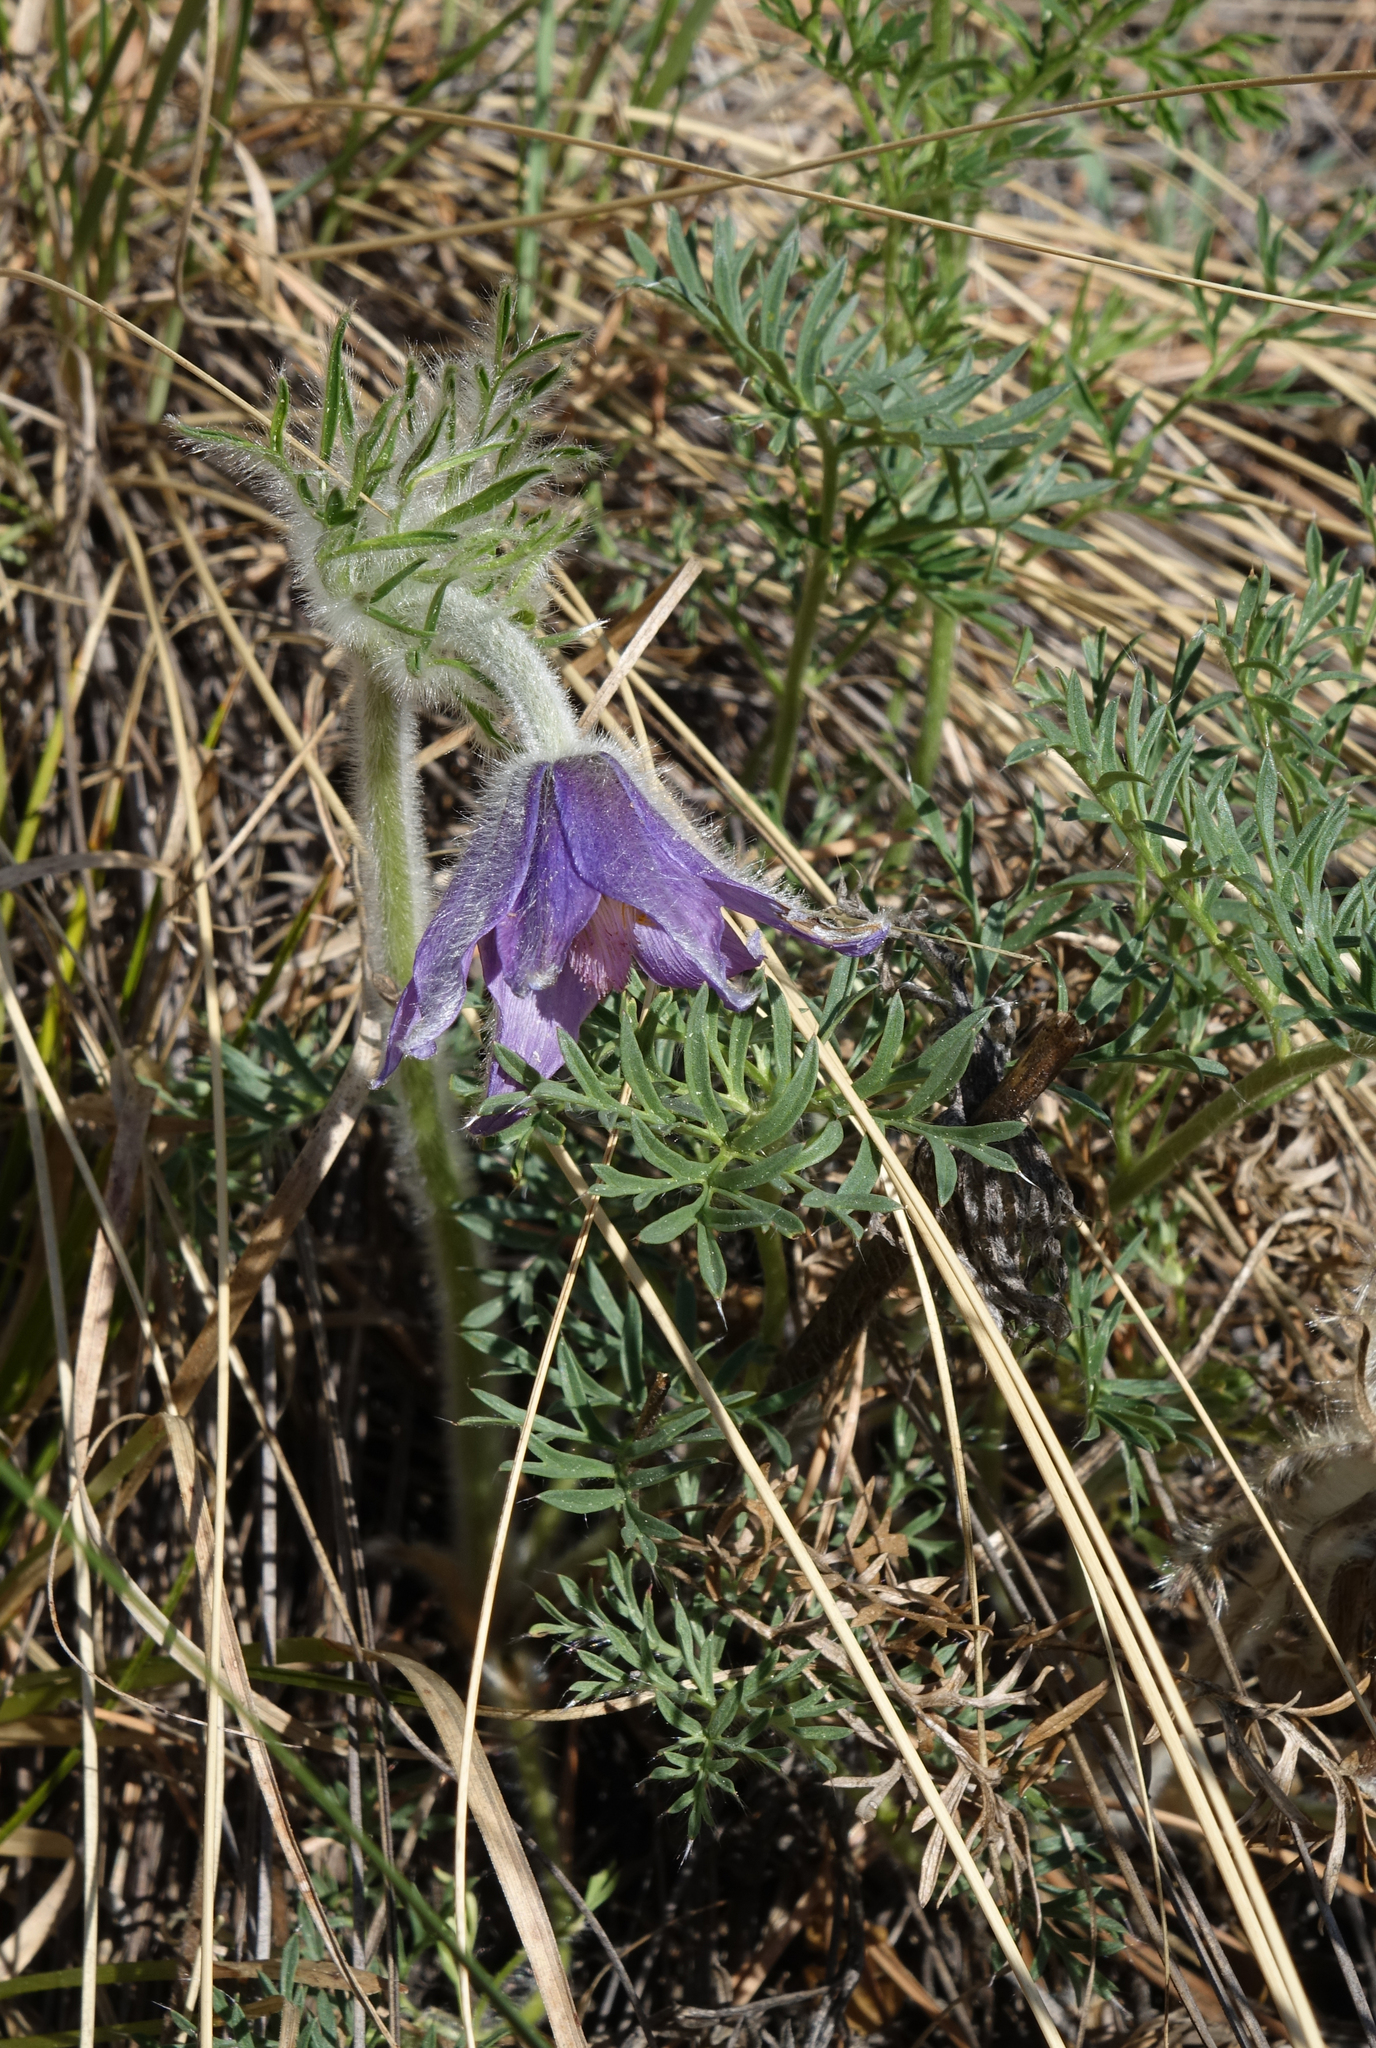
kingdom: Plantae
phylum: Tracheophyta
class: Magnoliopsida
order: Ranunculales
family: Ranunculaceae
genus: Pulsatilla
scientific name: Pulsatilla turczaninovii
